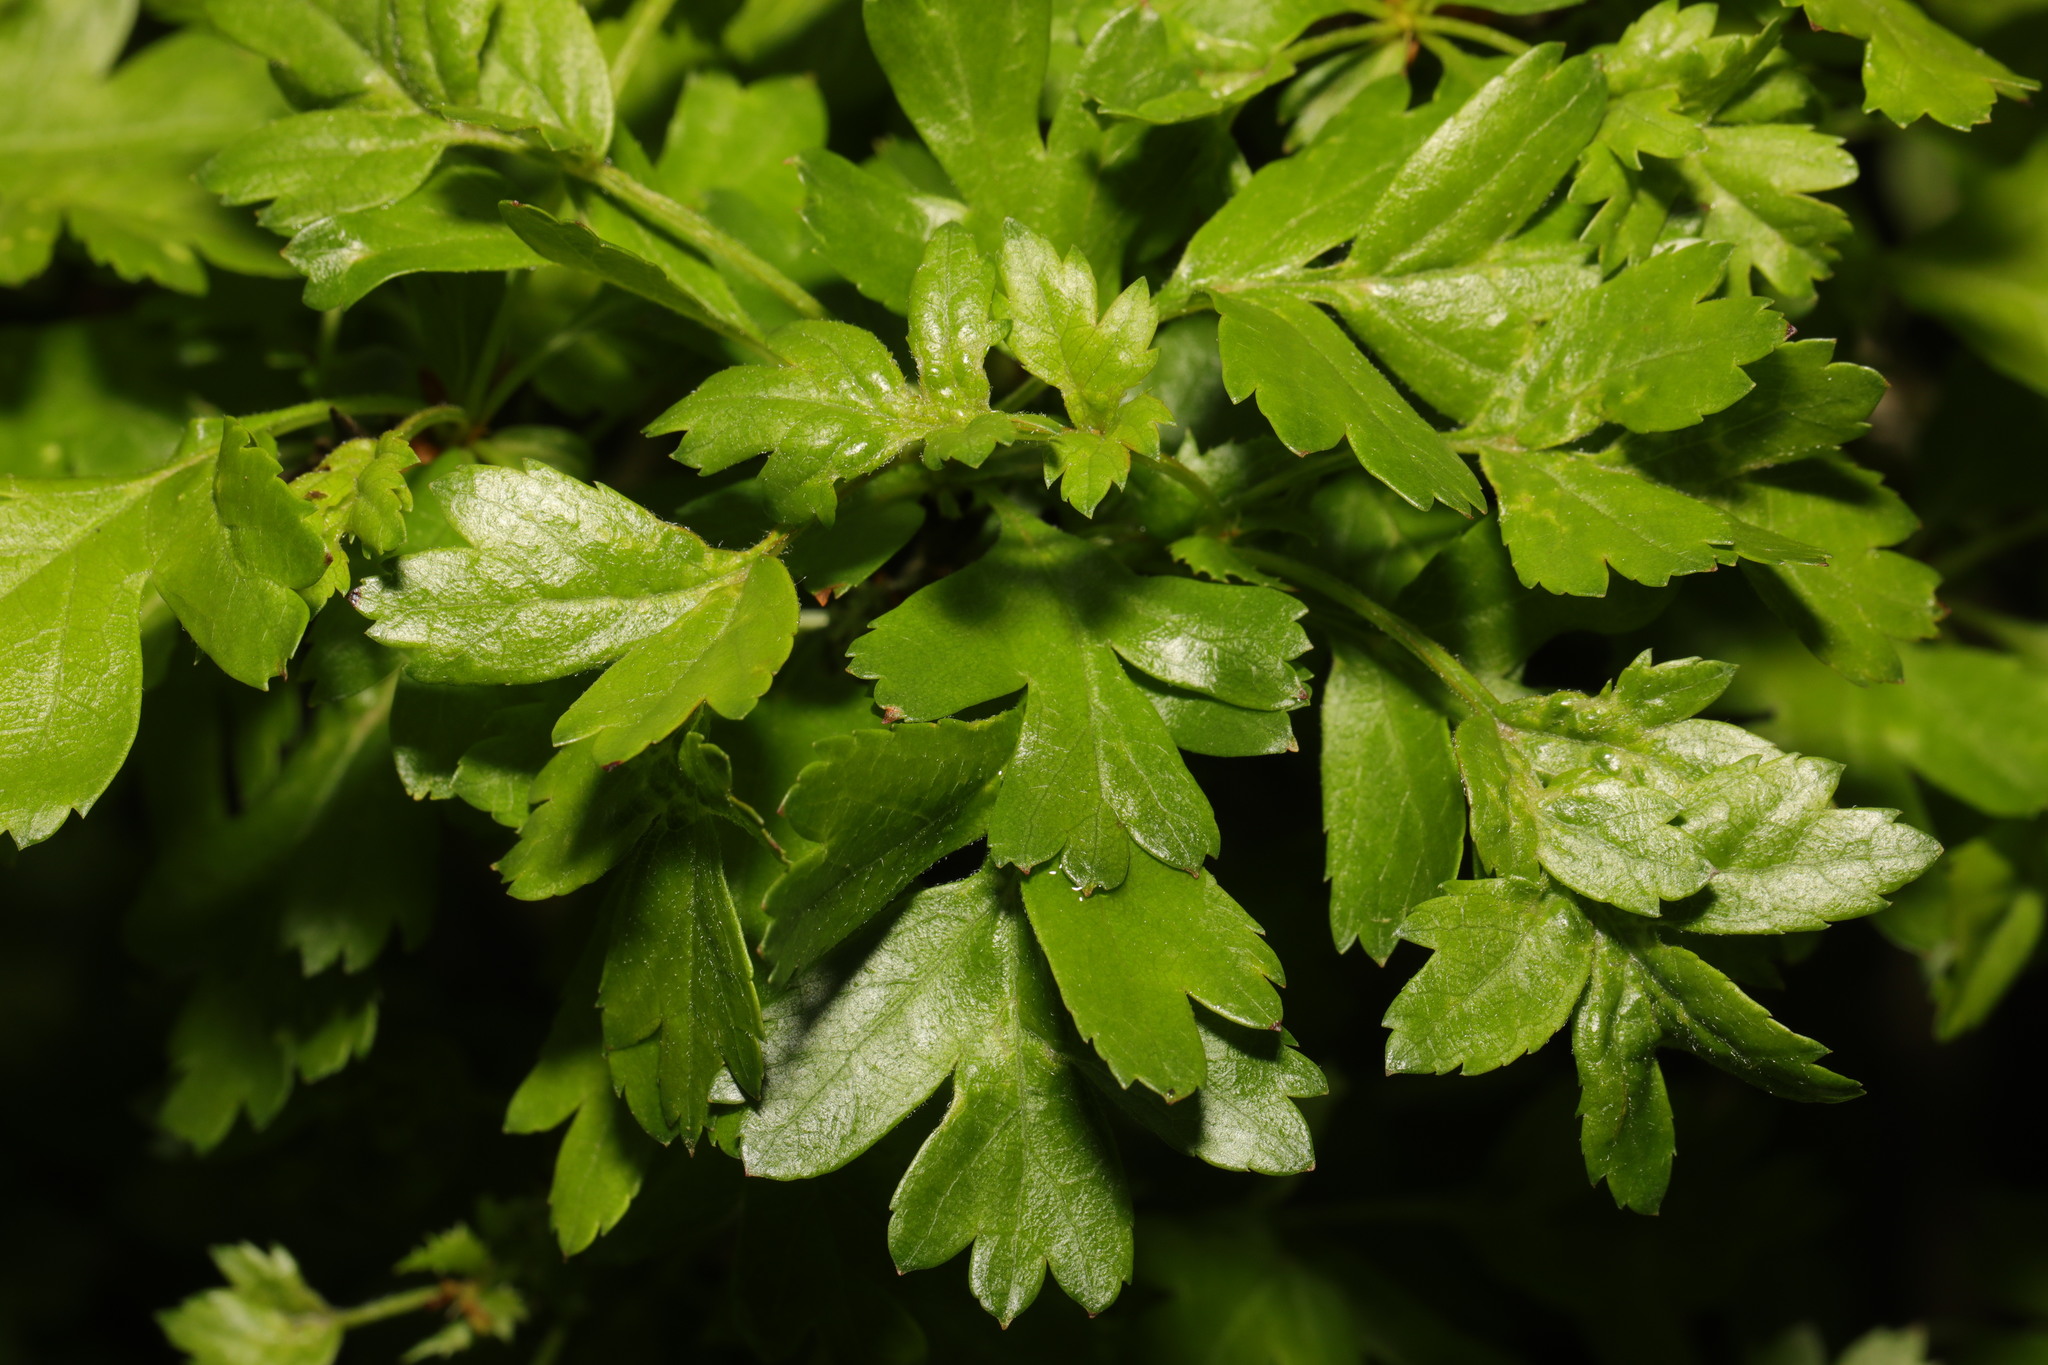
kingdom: Plantae
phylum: Tracheophyta
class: Magnoliopsida
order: Rosales
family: Rosaceae
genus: Crataegus
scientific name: Crataegus monogyna
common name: Hawthorn
